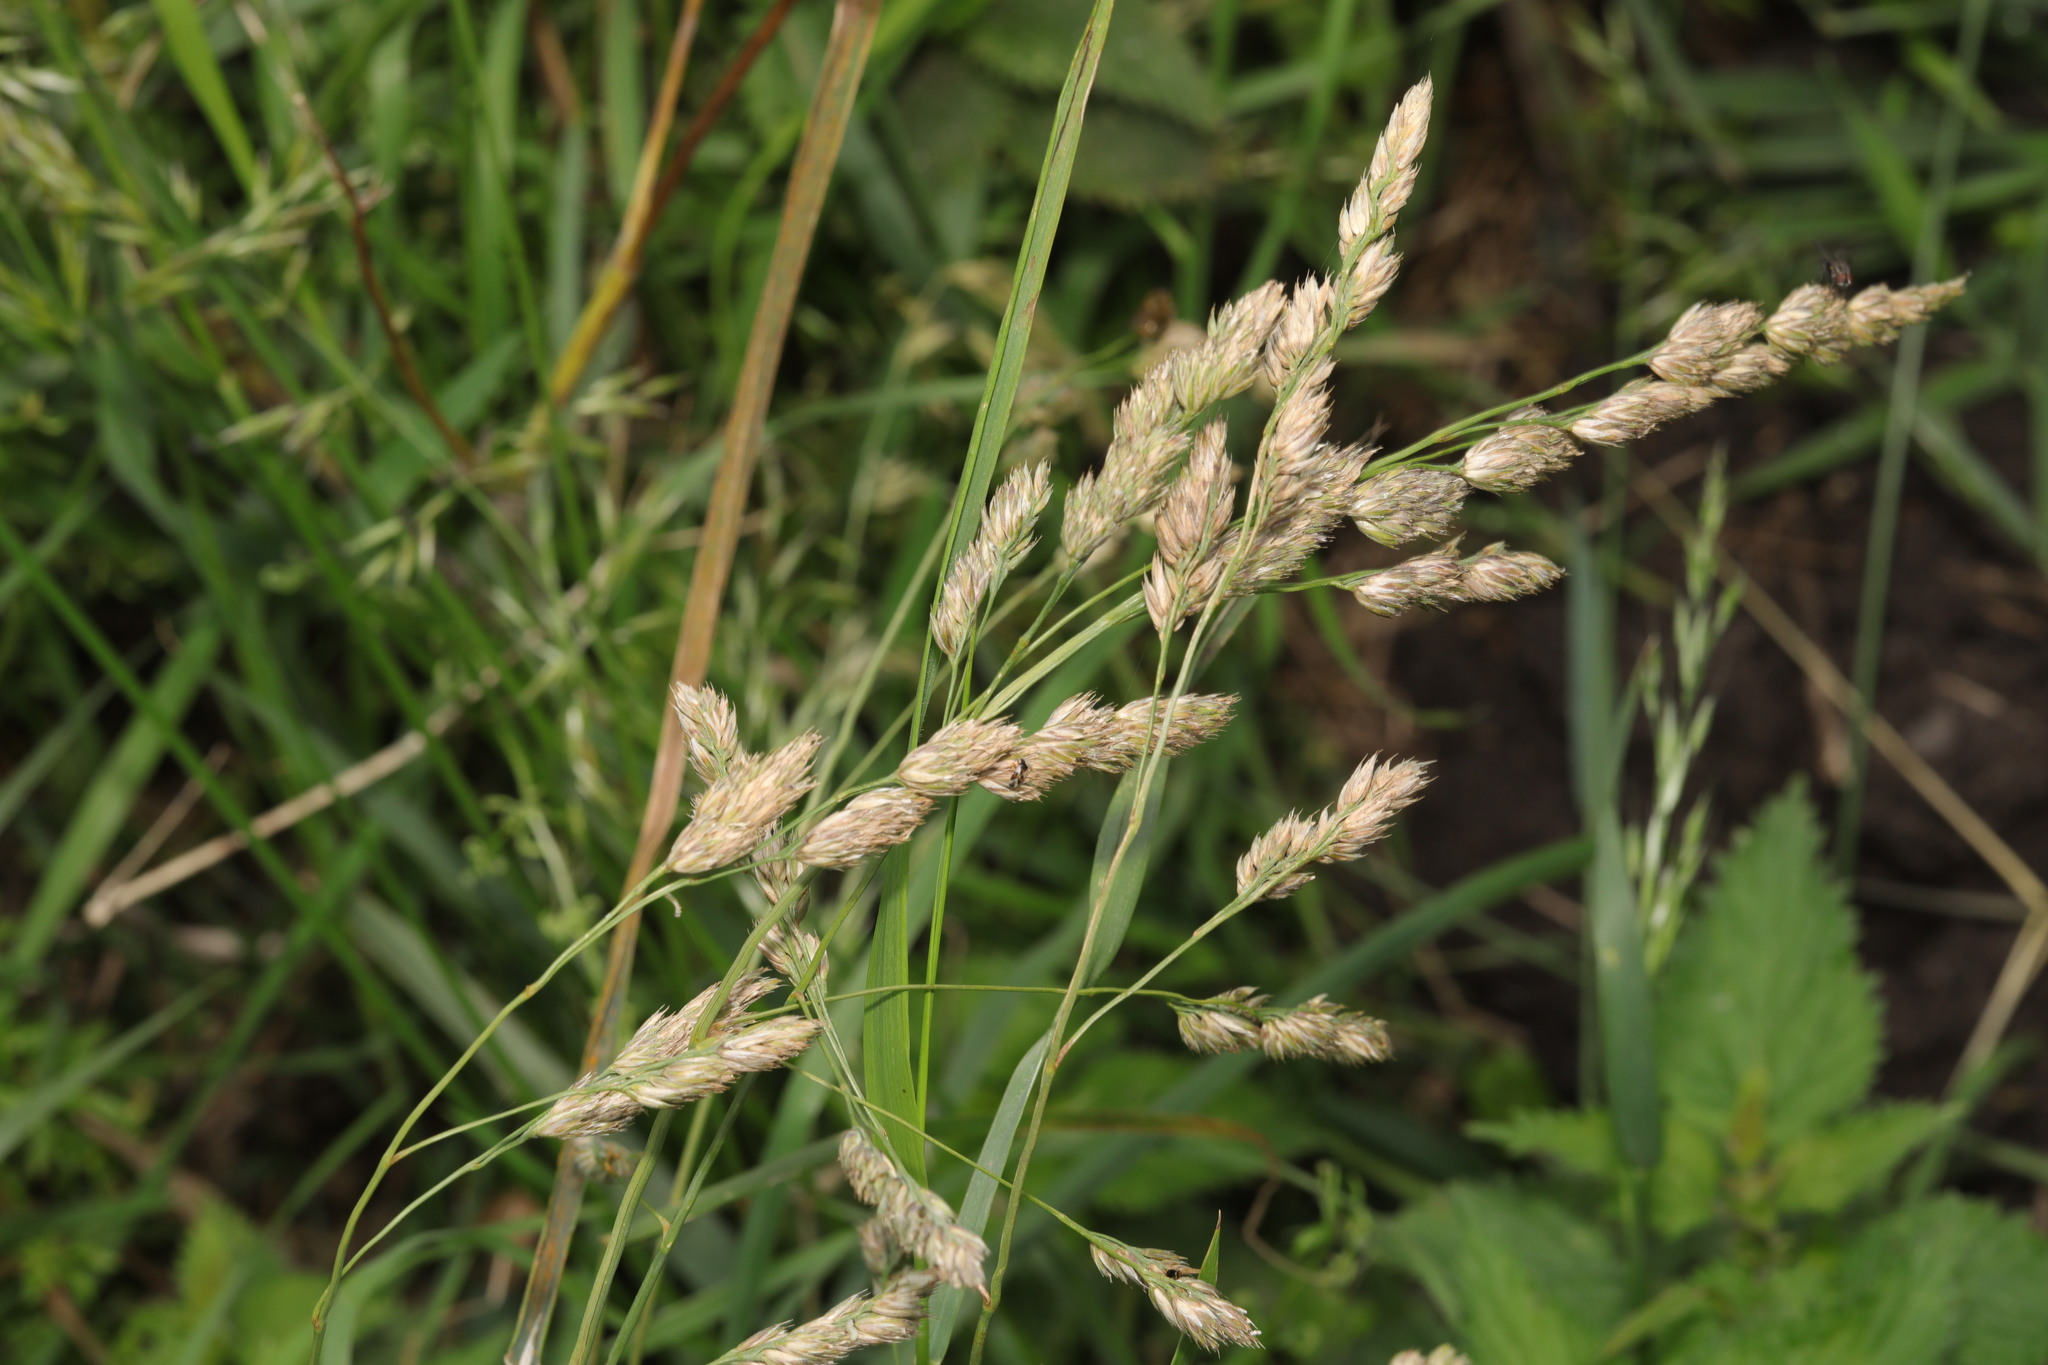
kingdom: Plantae
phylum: Tracheophyta
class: Liliopsida
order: Poales
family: Poaceae
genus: Dactylis
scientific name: Dactylis glomerata
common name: Orchardgrass
